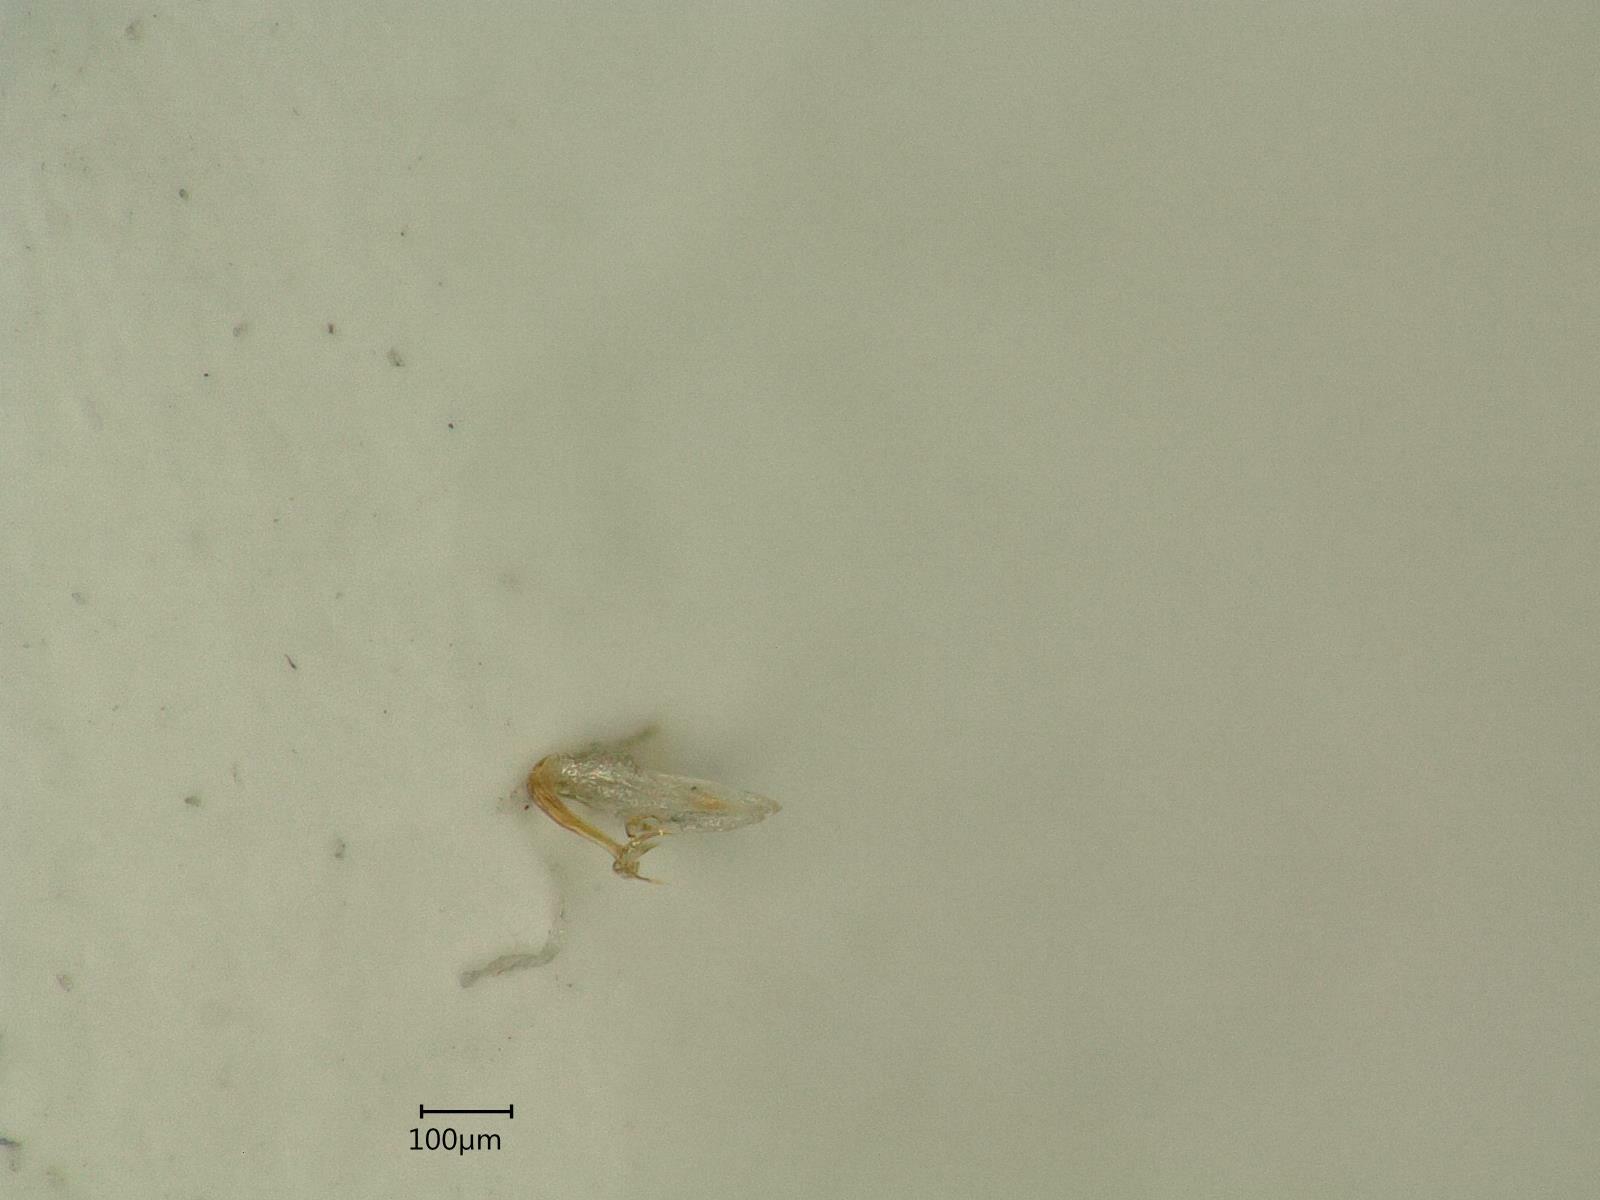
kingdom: Animalia
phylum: Arthropoda
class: Insecta
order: Hemiptera
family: Cicadellidae
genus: Edwardsiana
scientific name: Edwardsiana frustrator
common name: Leafhopper
